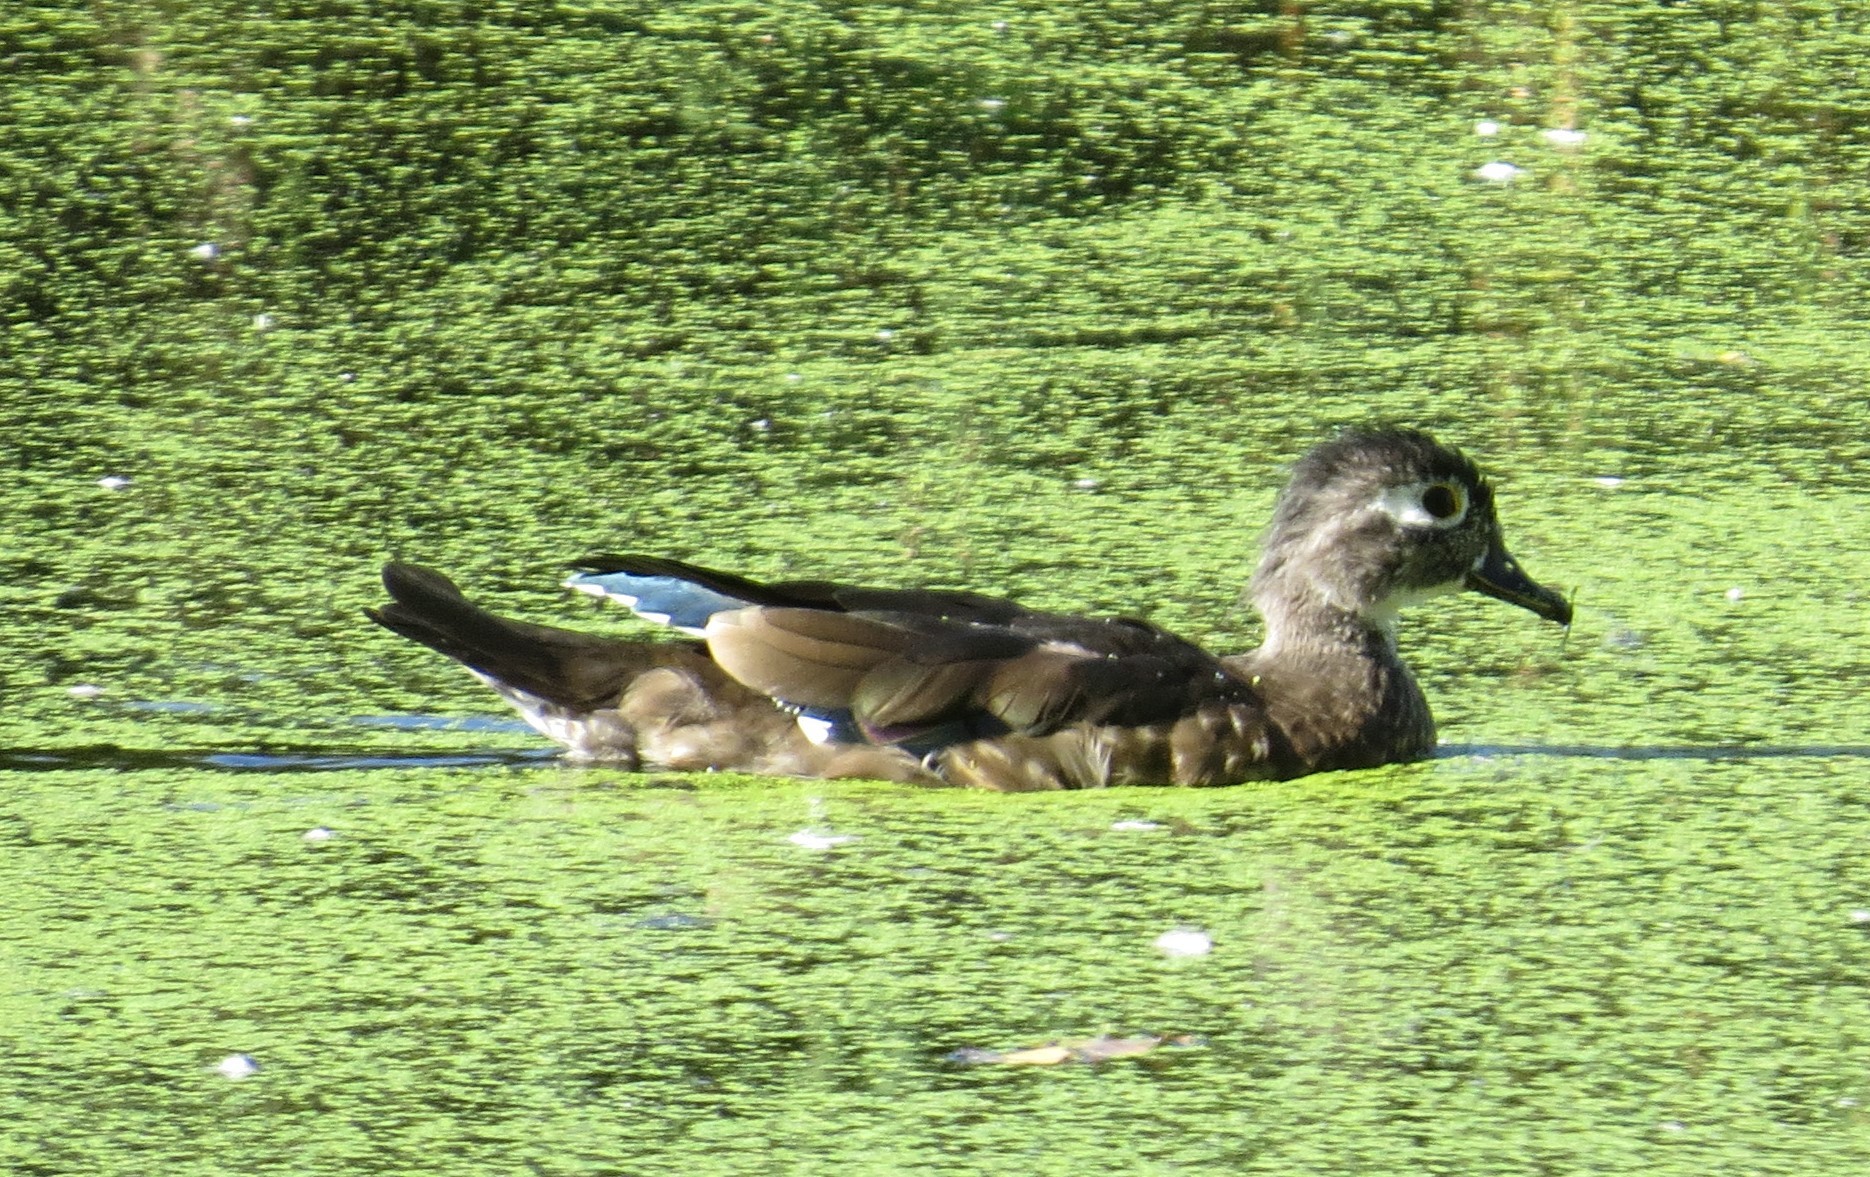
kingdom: Animalia
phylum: Chordata
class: Aves
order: Anseriformes
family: Anatidae
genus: Aix
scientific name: Aix sponsa
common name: Wood duck
